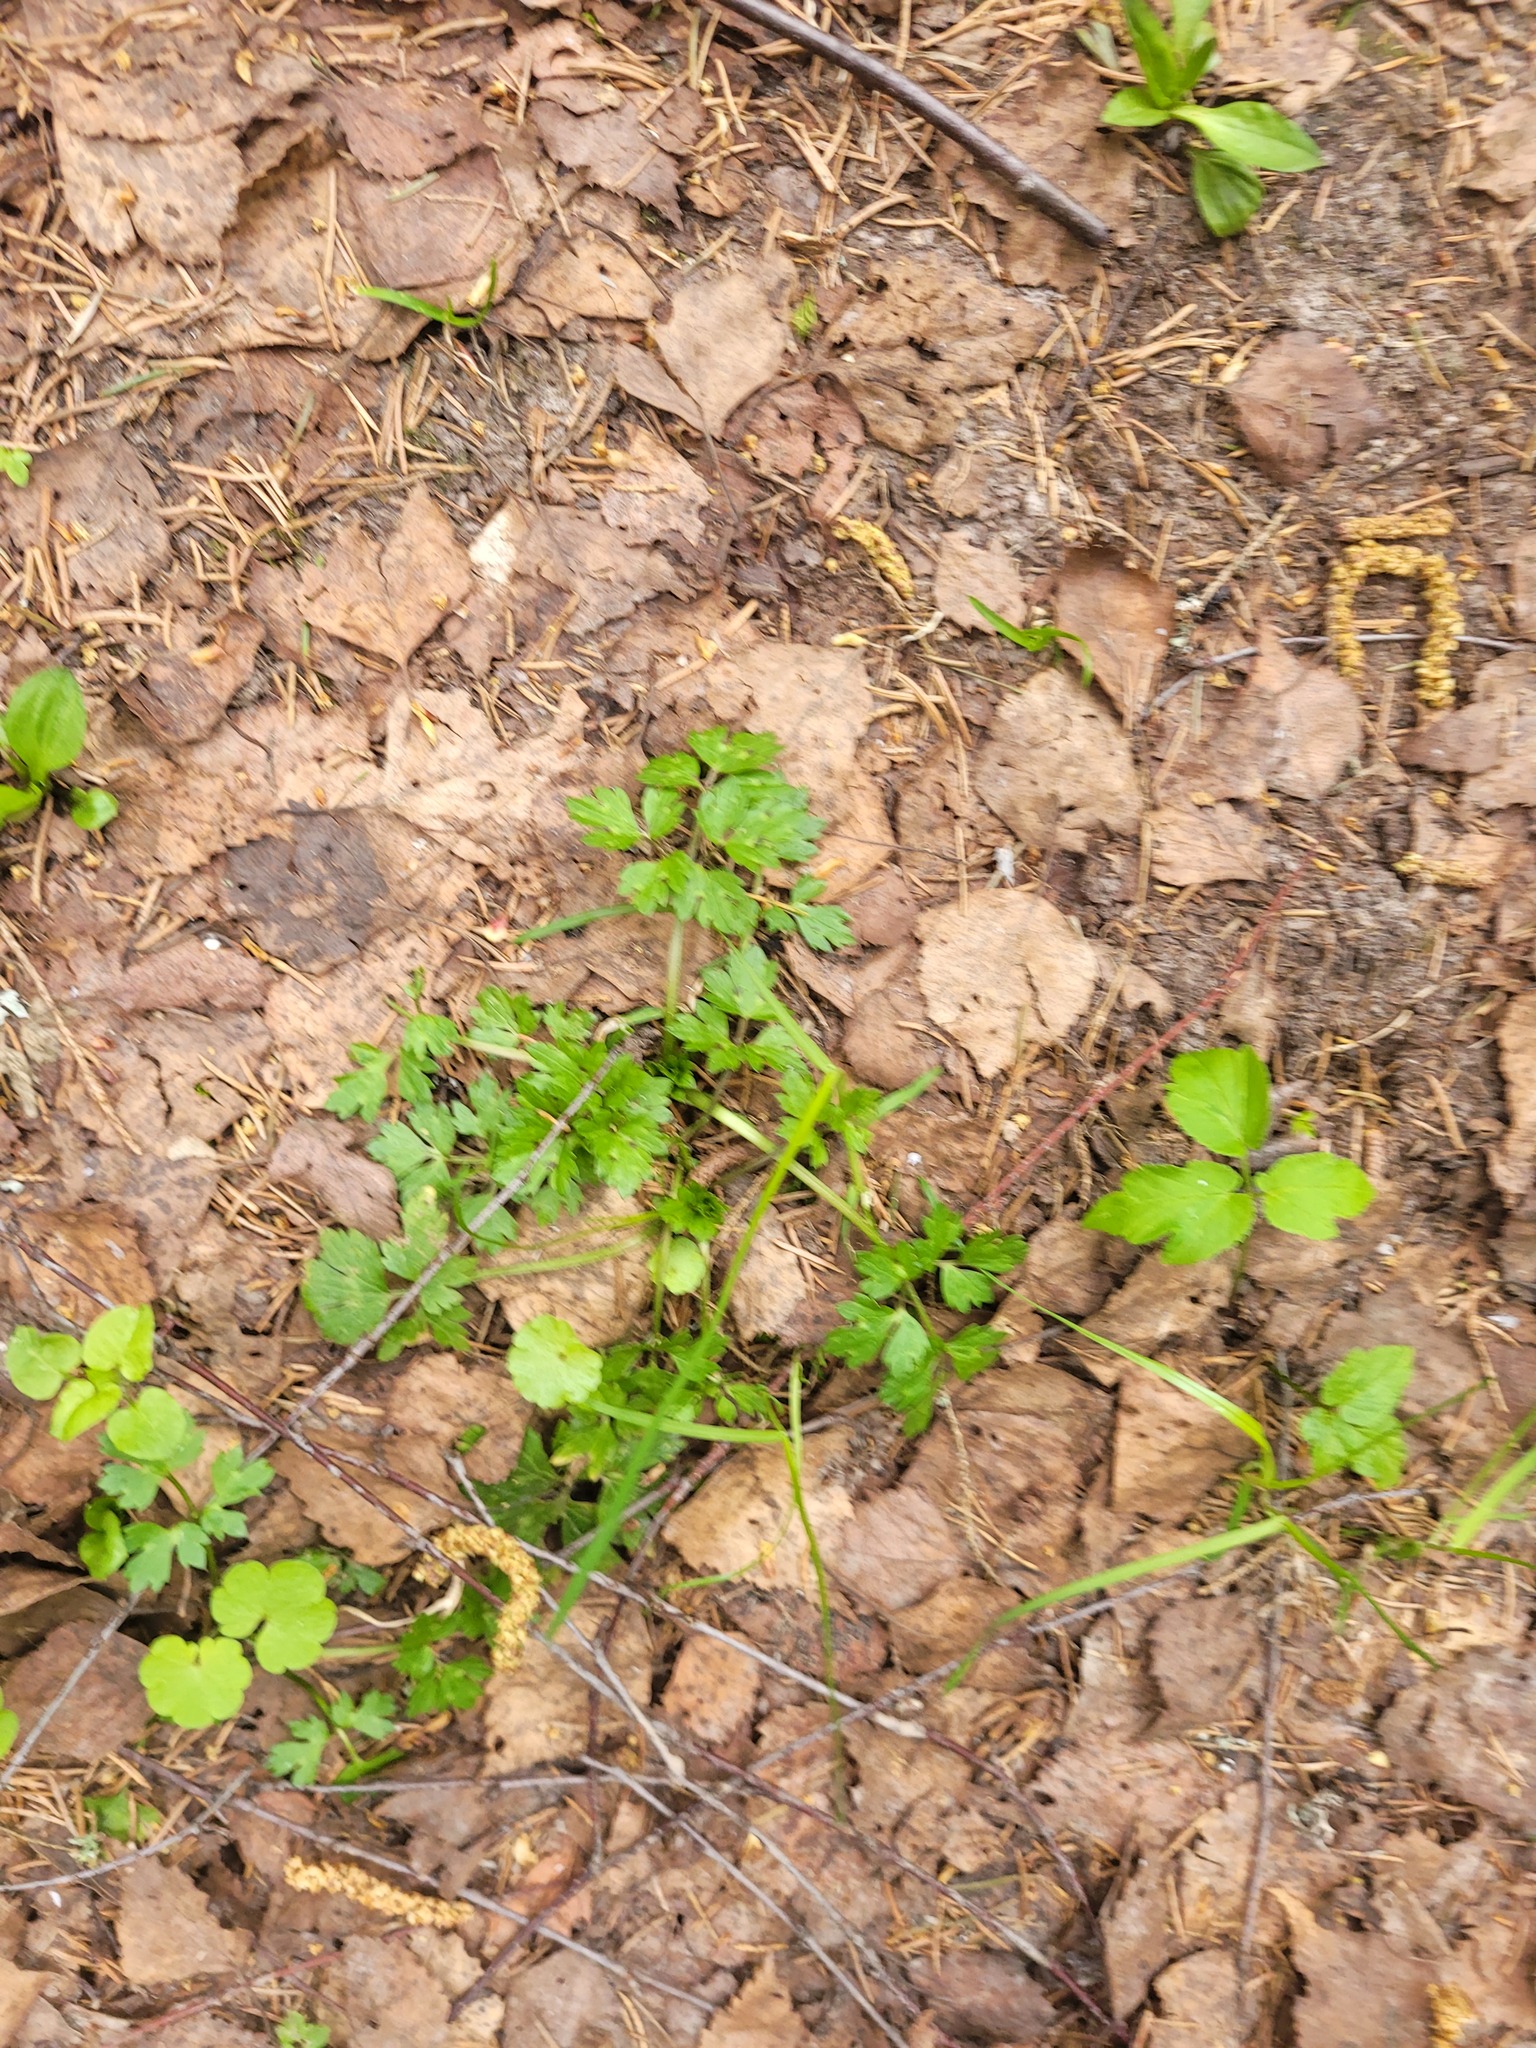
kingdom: Plantae
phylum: Tracheophyta
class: Magnoliopsida
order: Ranunculales
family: Ranunculaceae
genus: Ranunculus
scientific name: Ranunculus repens
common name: Creeping buttercup
